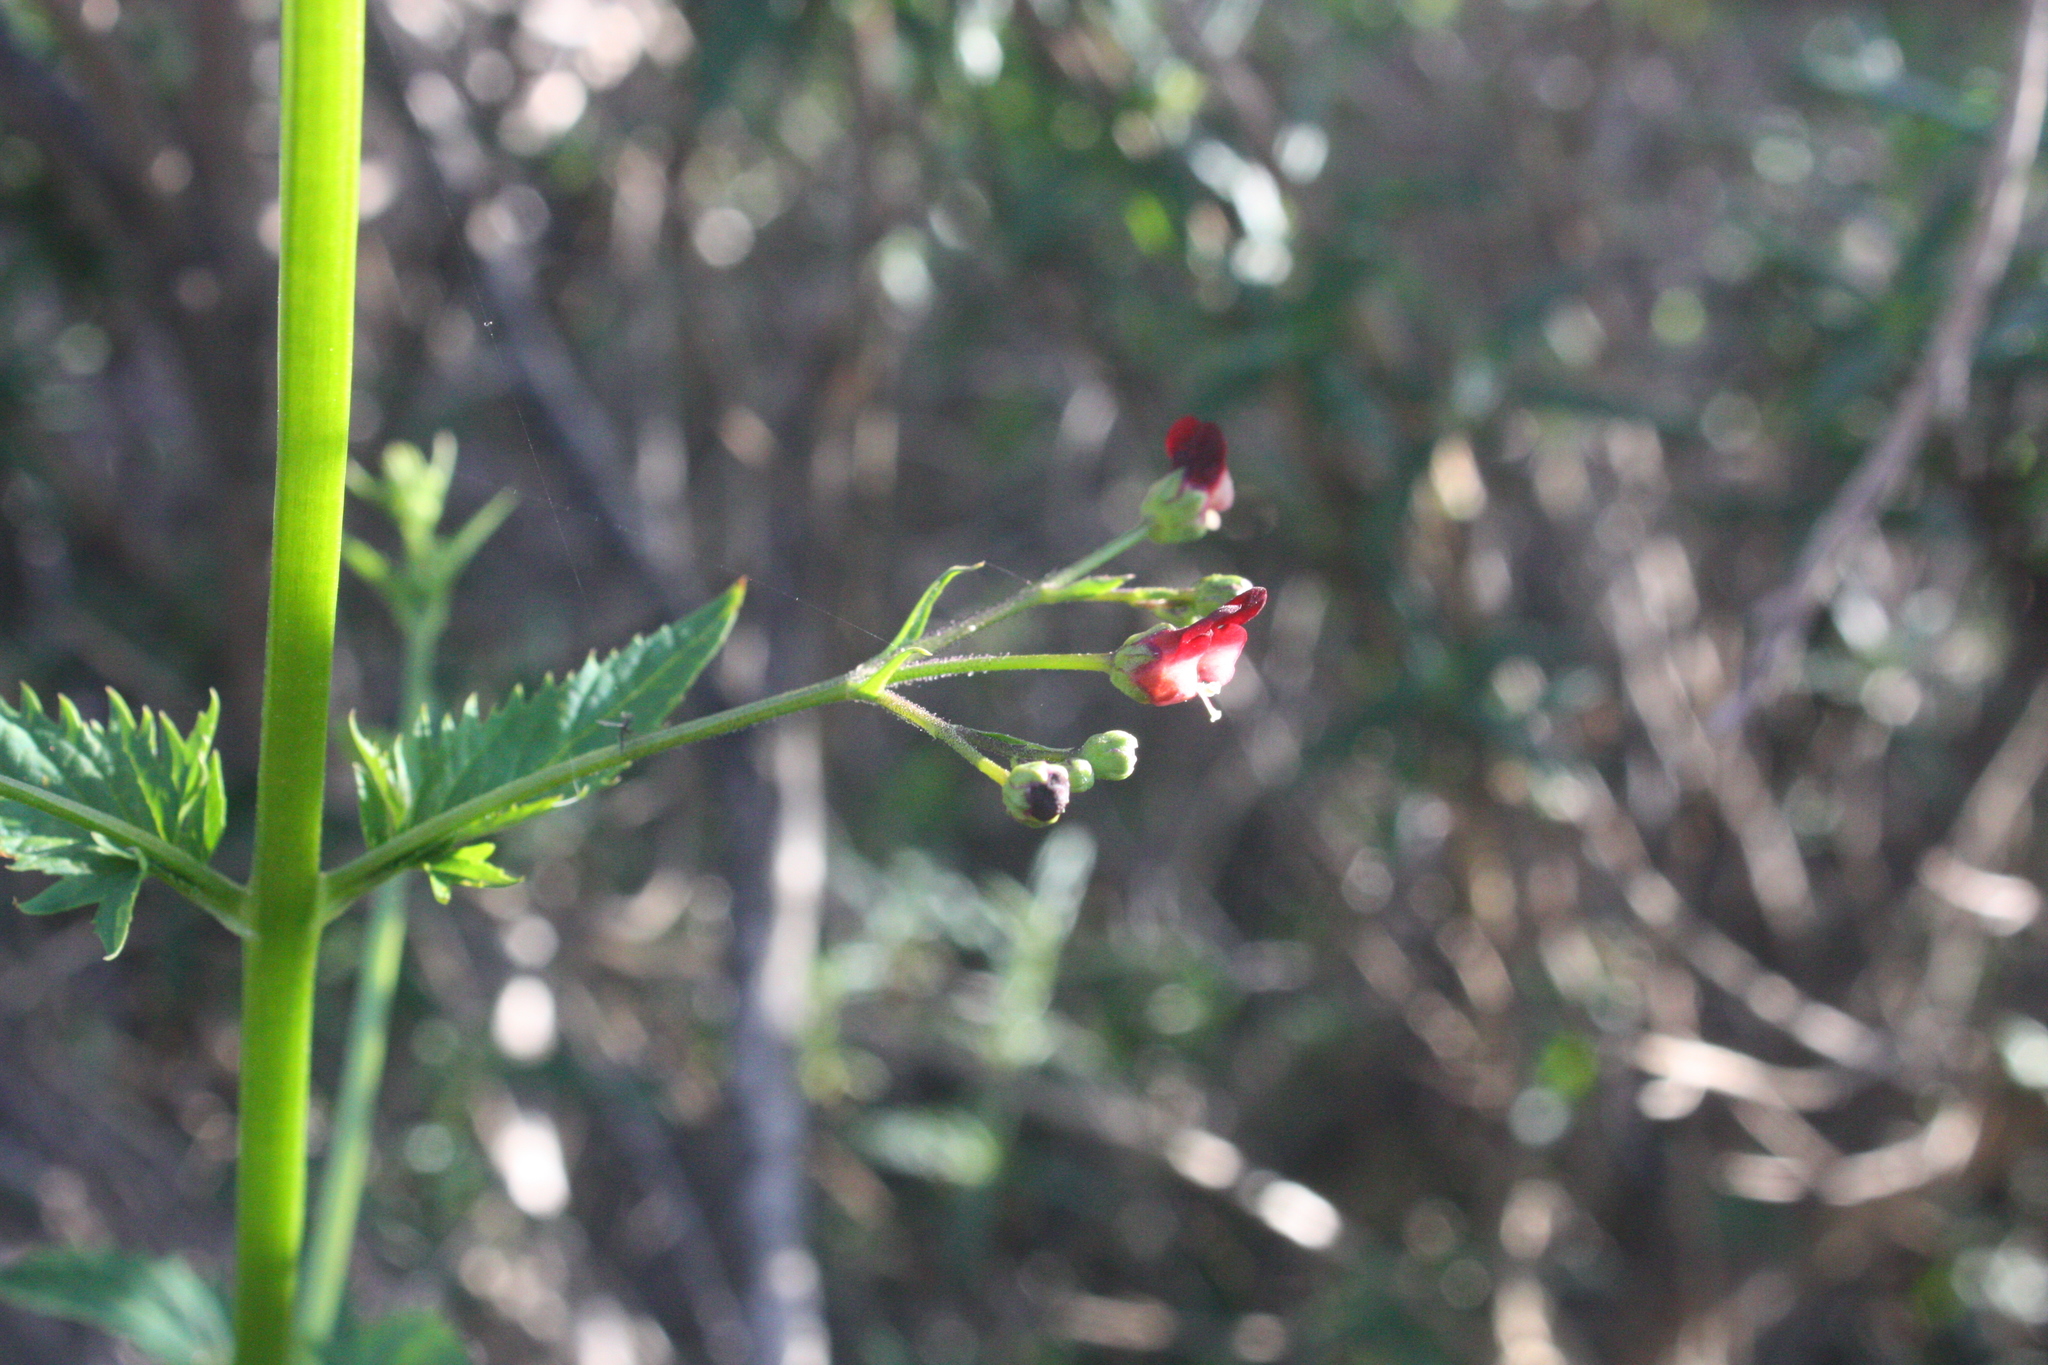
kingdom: Plantae
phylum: Tracheophyta
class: Magnoliopsida
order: Lamiales
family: Scrophulariaceae
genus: Scrophularia
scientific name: Scrophularia californica
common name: California figwort
